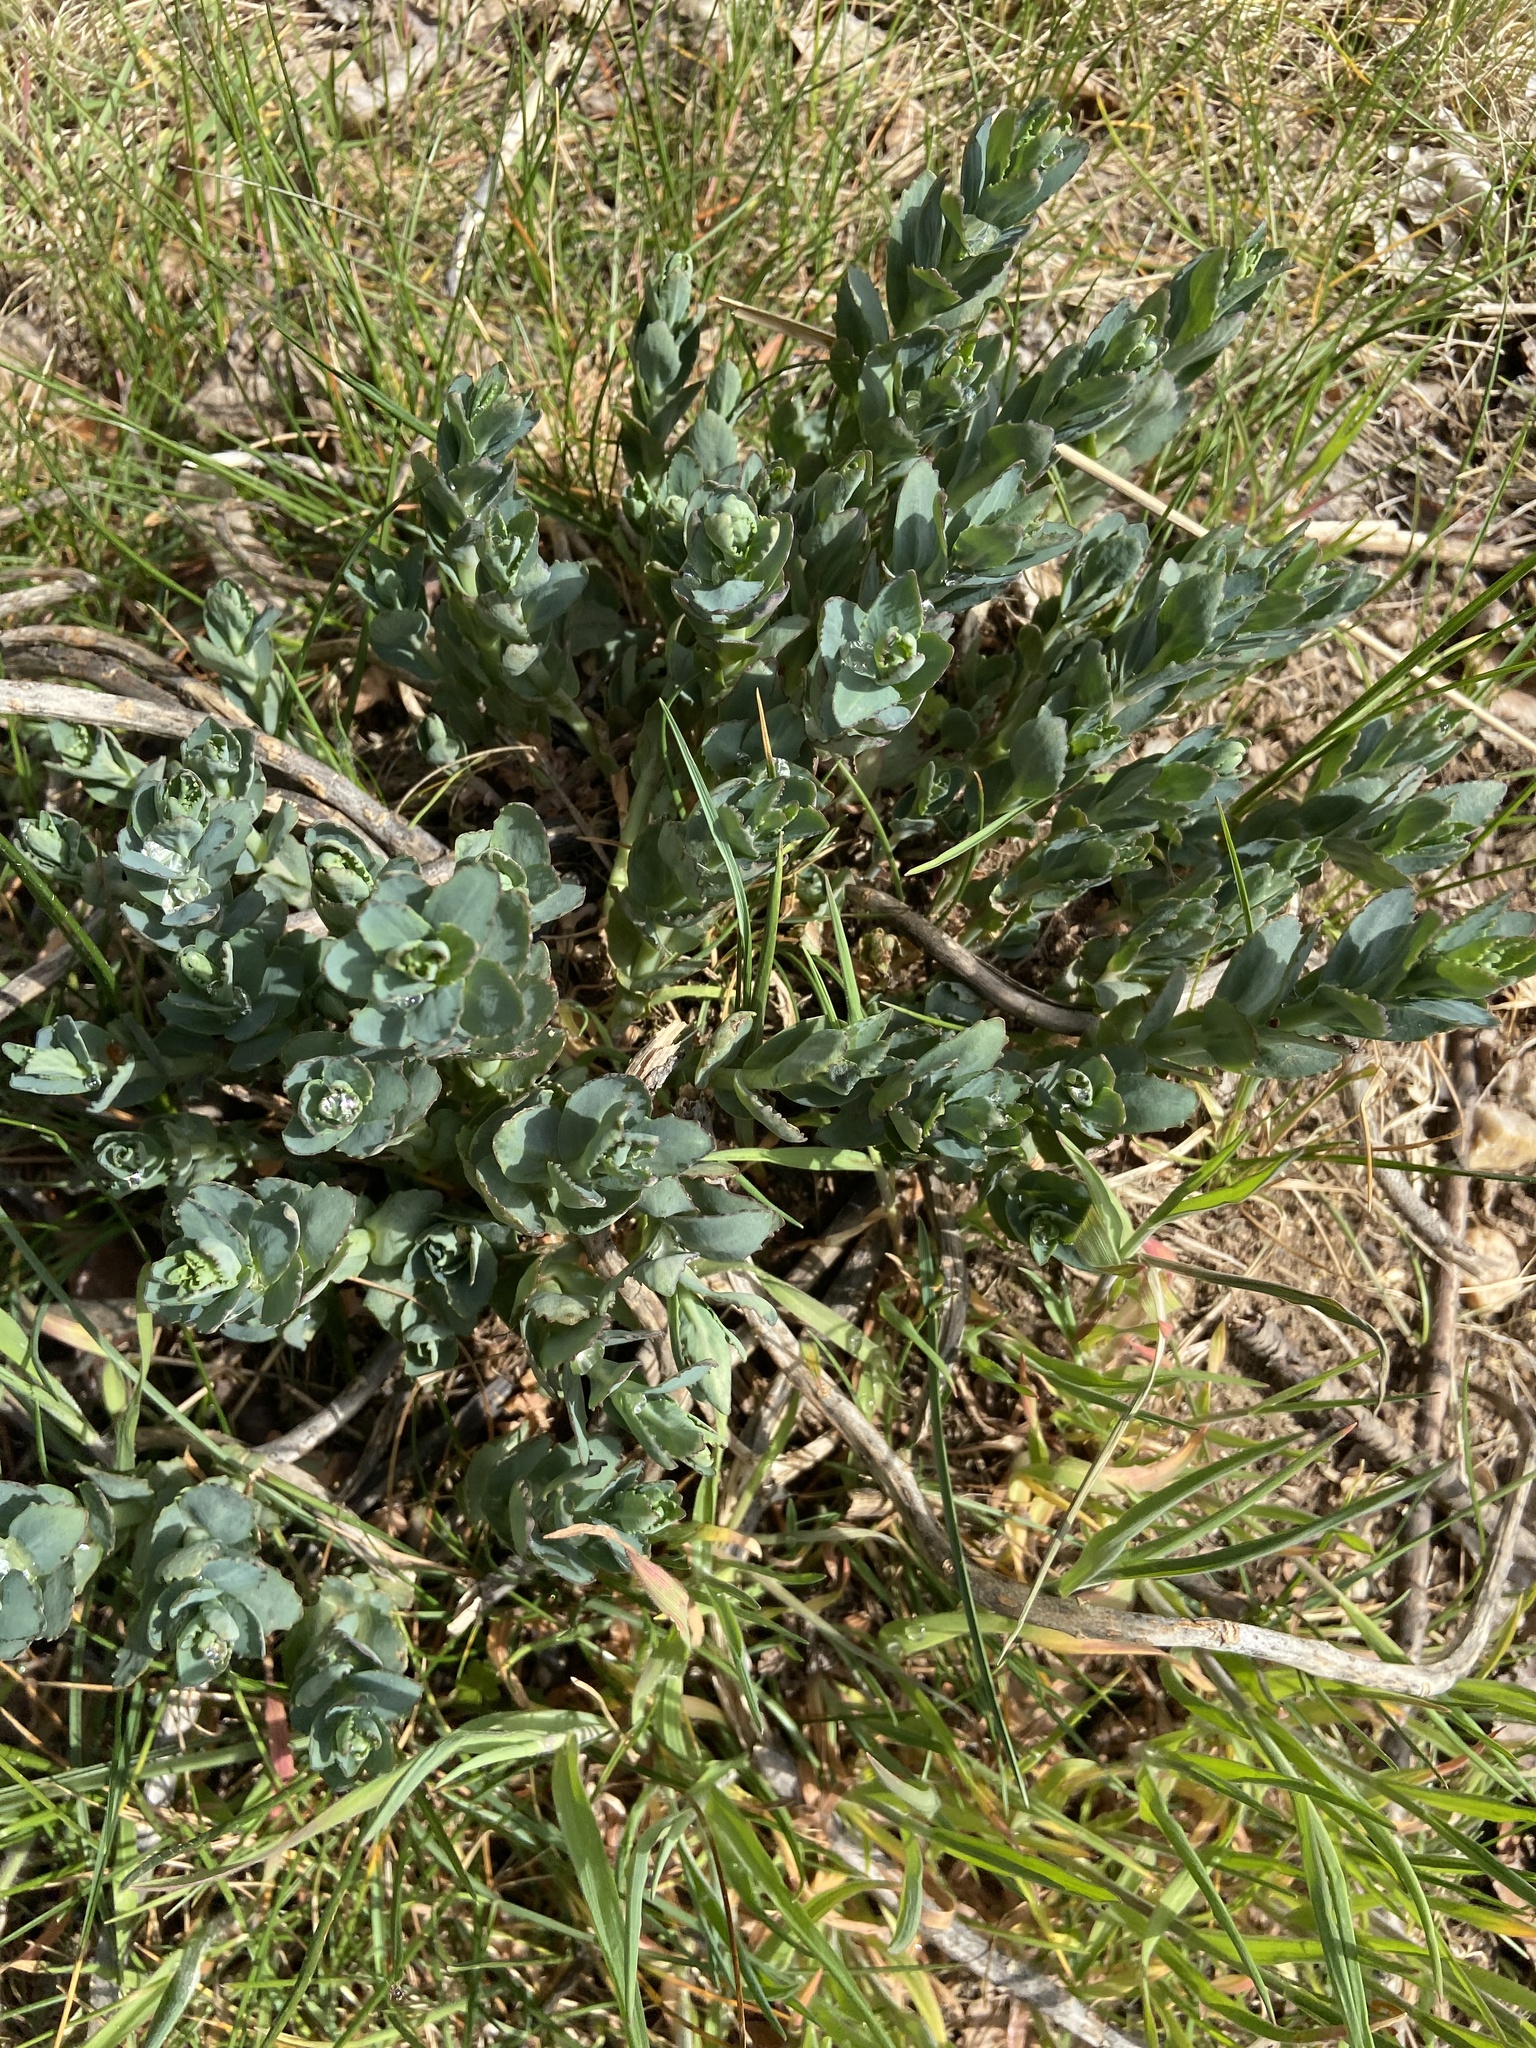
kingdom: Plantae
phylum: Tracheophyta
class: Magnoliopsida
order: Saxifragales
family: Crassulaceae
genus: Hylotelephium
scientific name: Hylotelephium maximum
